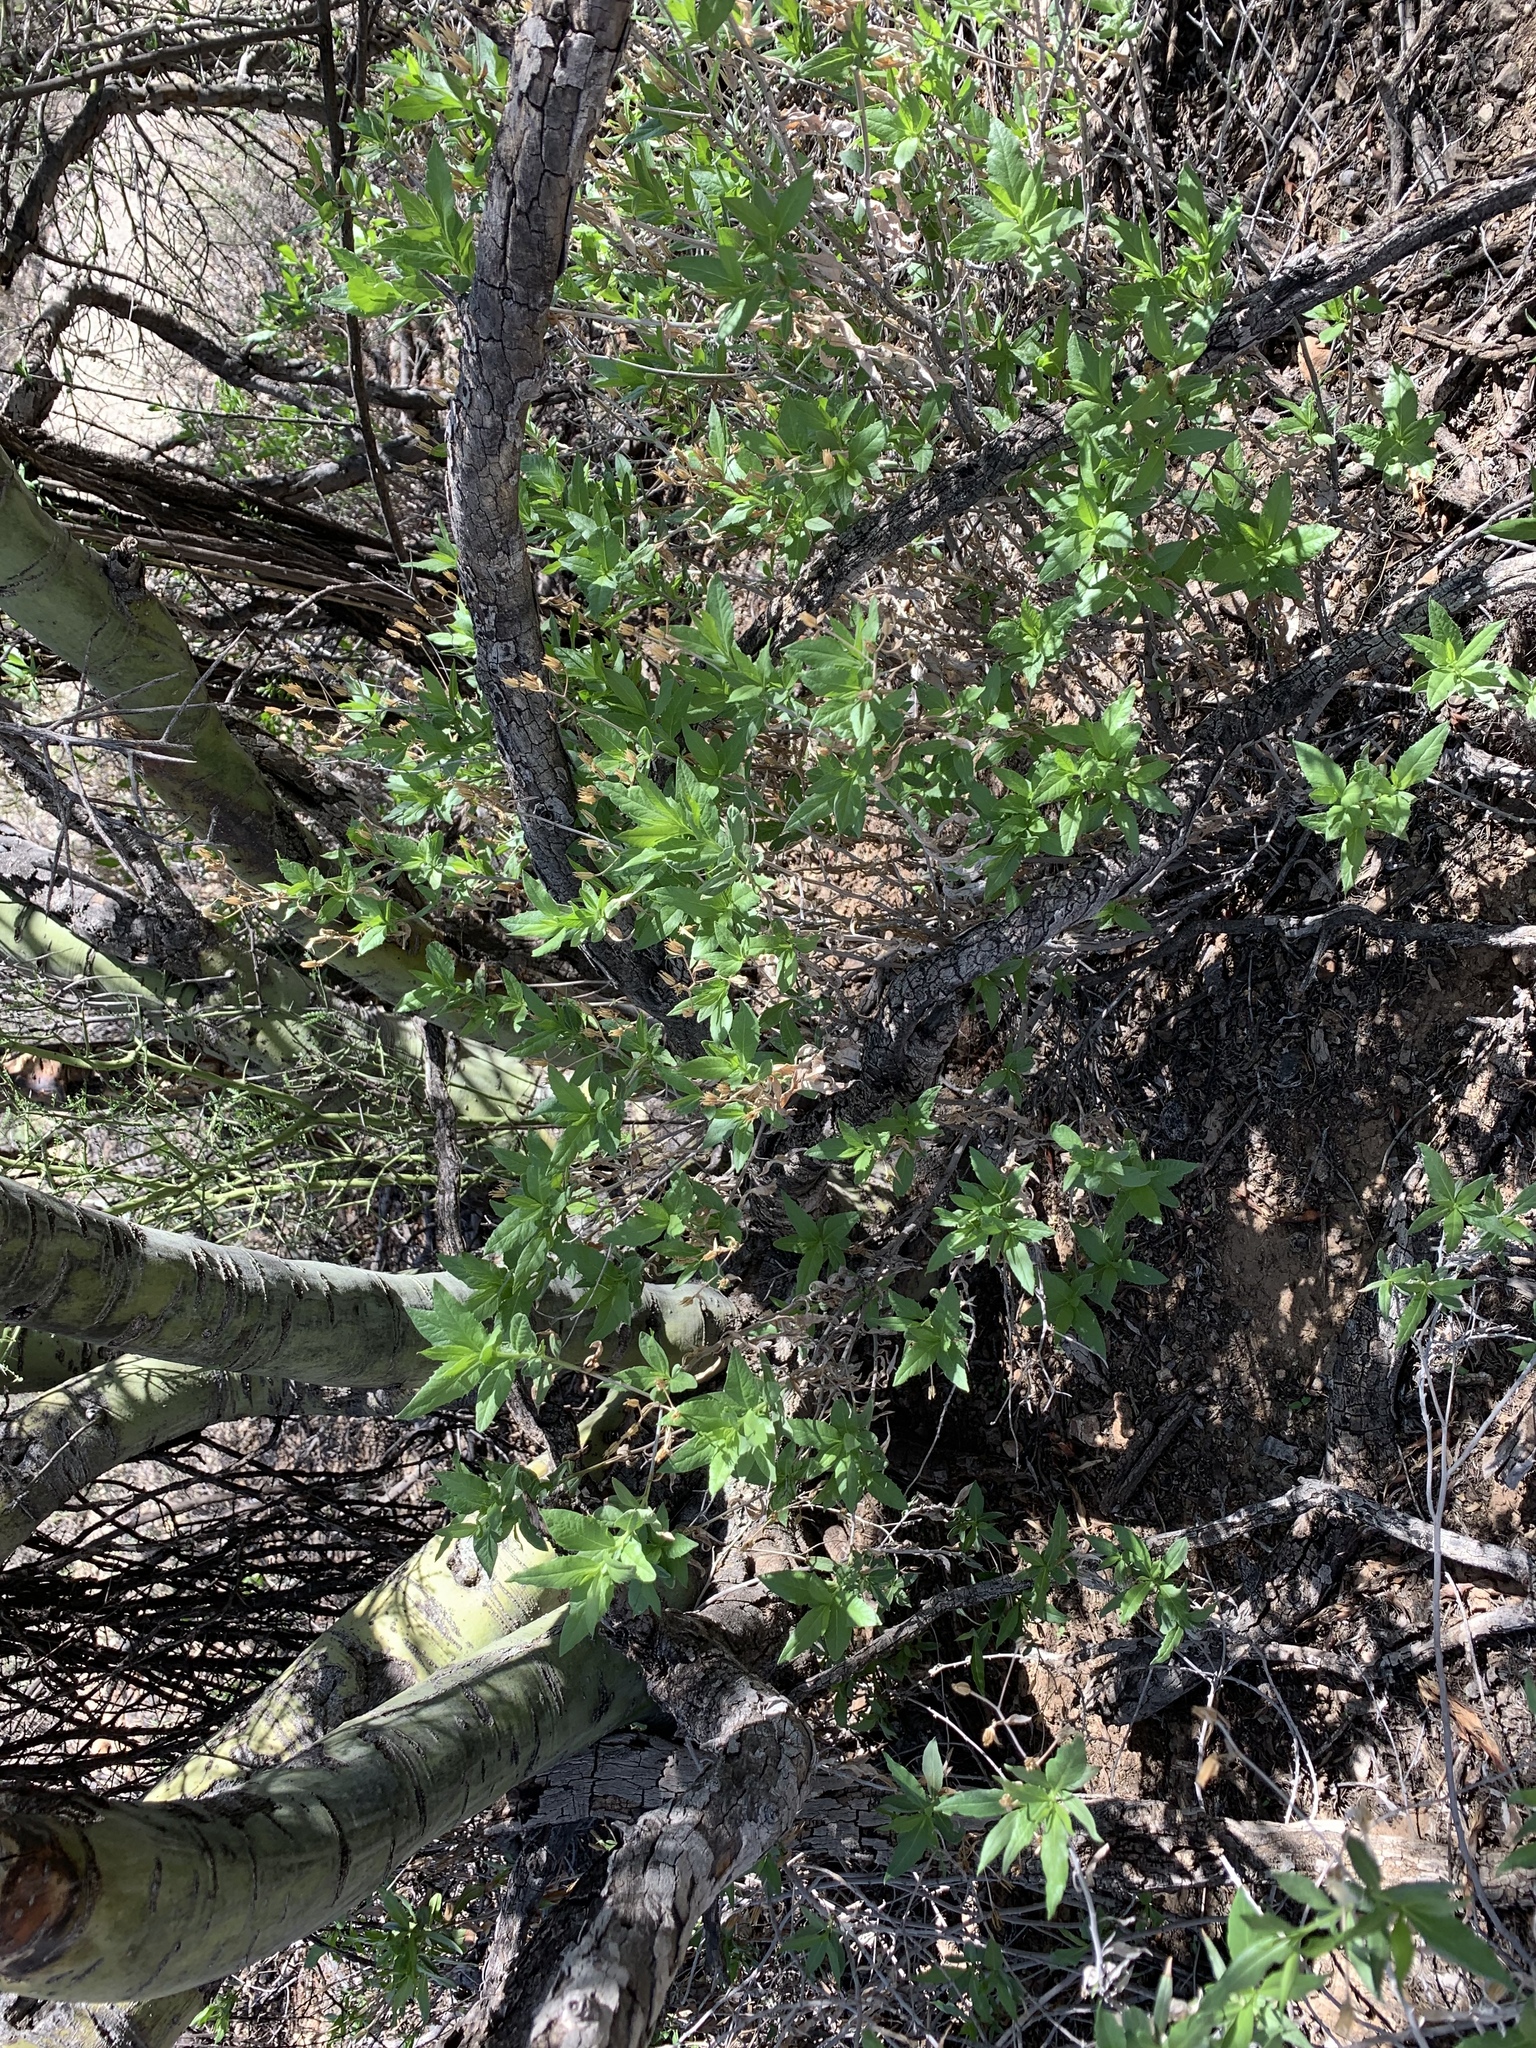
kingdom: Plantae
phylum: Tracheophyta
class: Magnoliopsida
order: Asterales
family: Asteraceae
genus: Trixis
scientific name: Trixis californica
